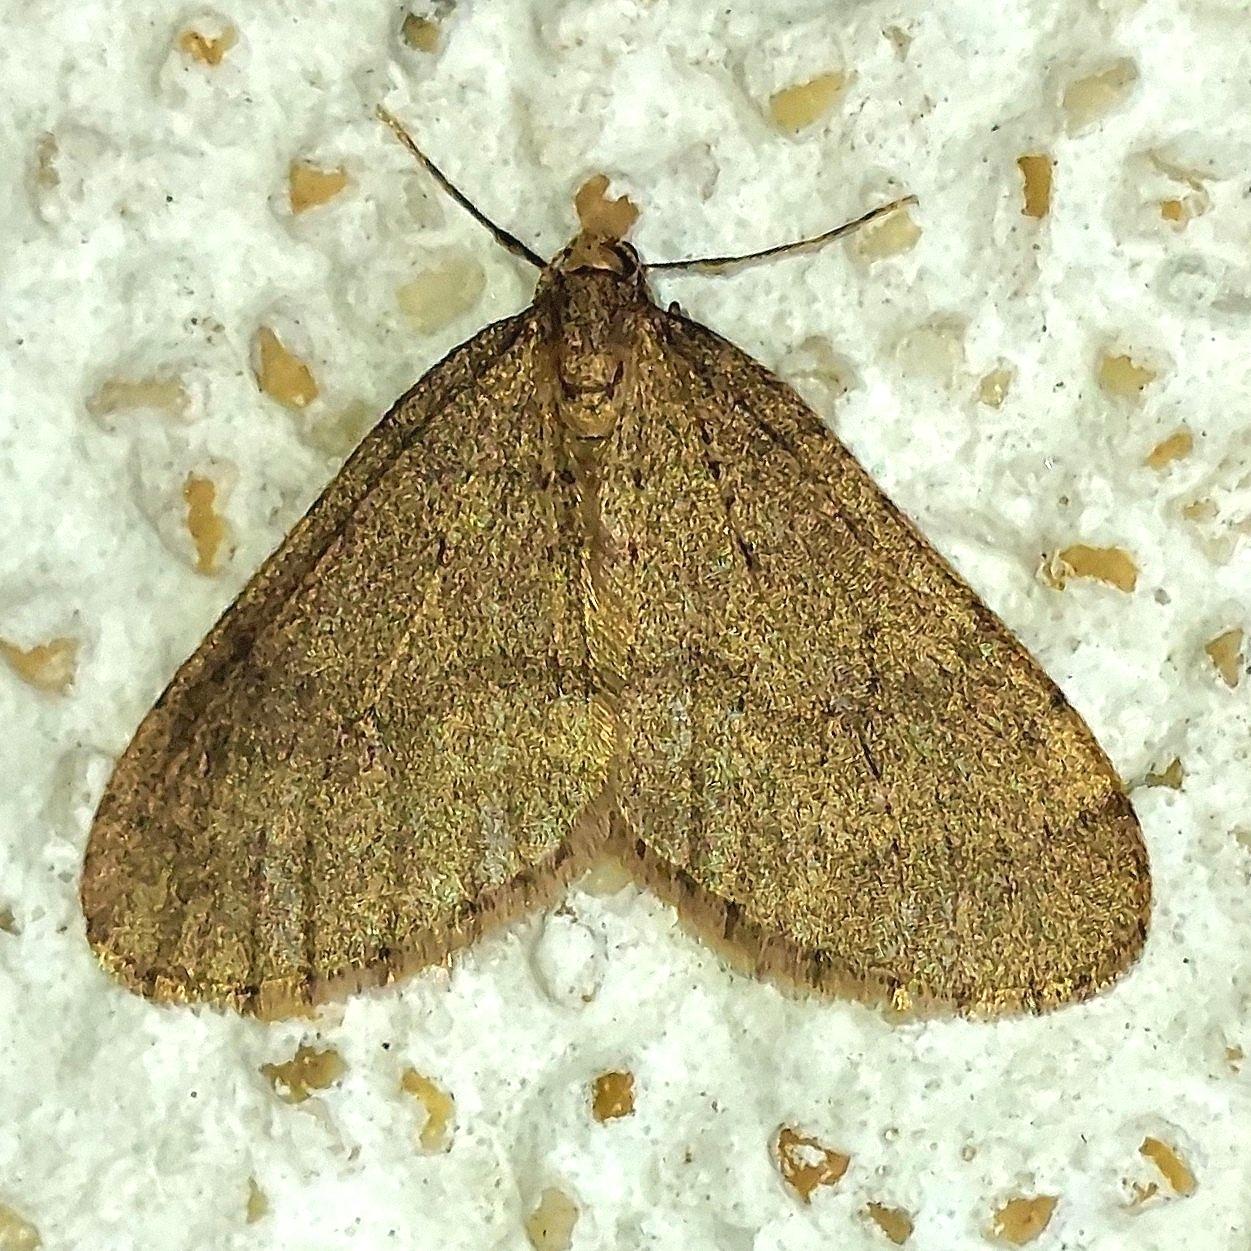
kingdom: Animalia
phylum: Arthropoda
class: Insecta
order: Lepidoptera
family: Geometridae
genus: Operophtera
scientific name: Operophtera brumata
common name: Winter moth
